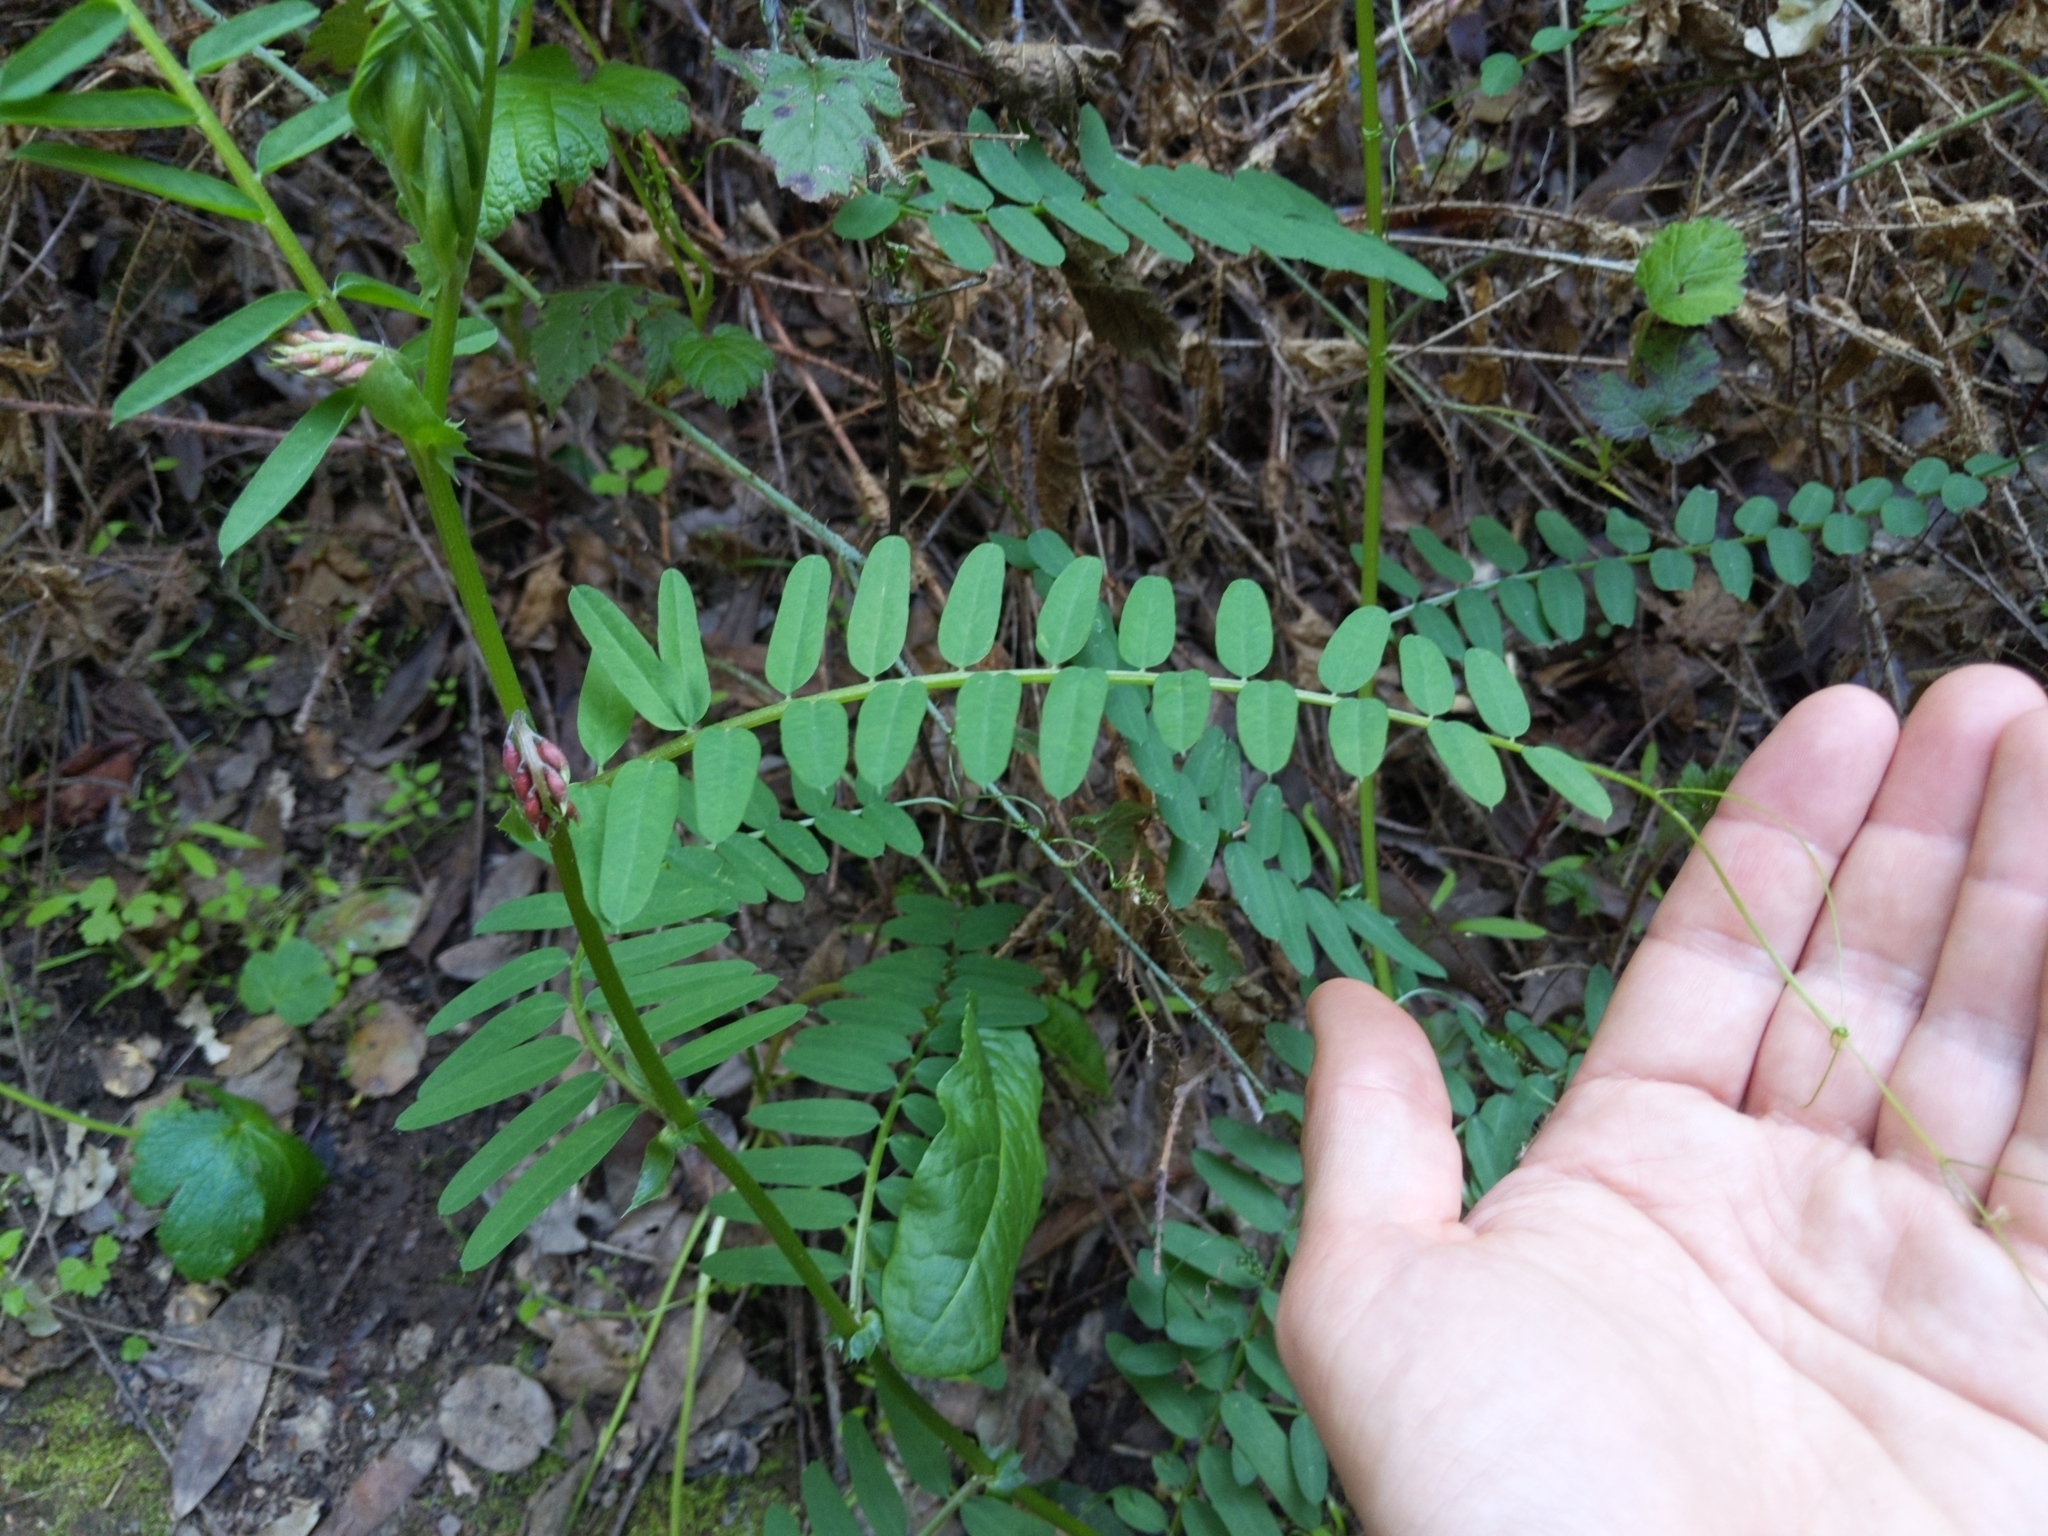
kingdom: Plantae
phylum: Tracheophyta
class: Magnoliopsida
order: Fabales
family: Fabaceae
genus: Vicia
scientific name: Vicia
